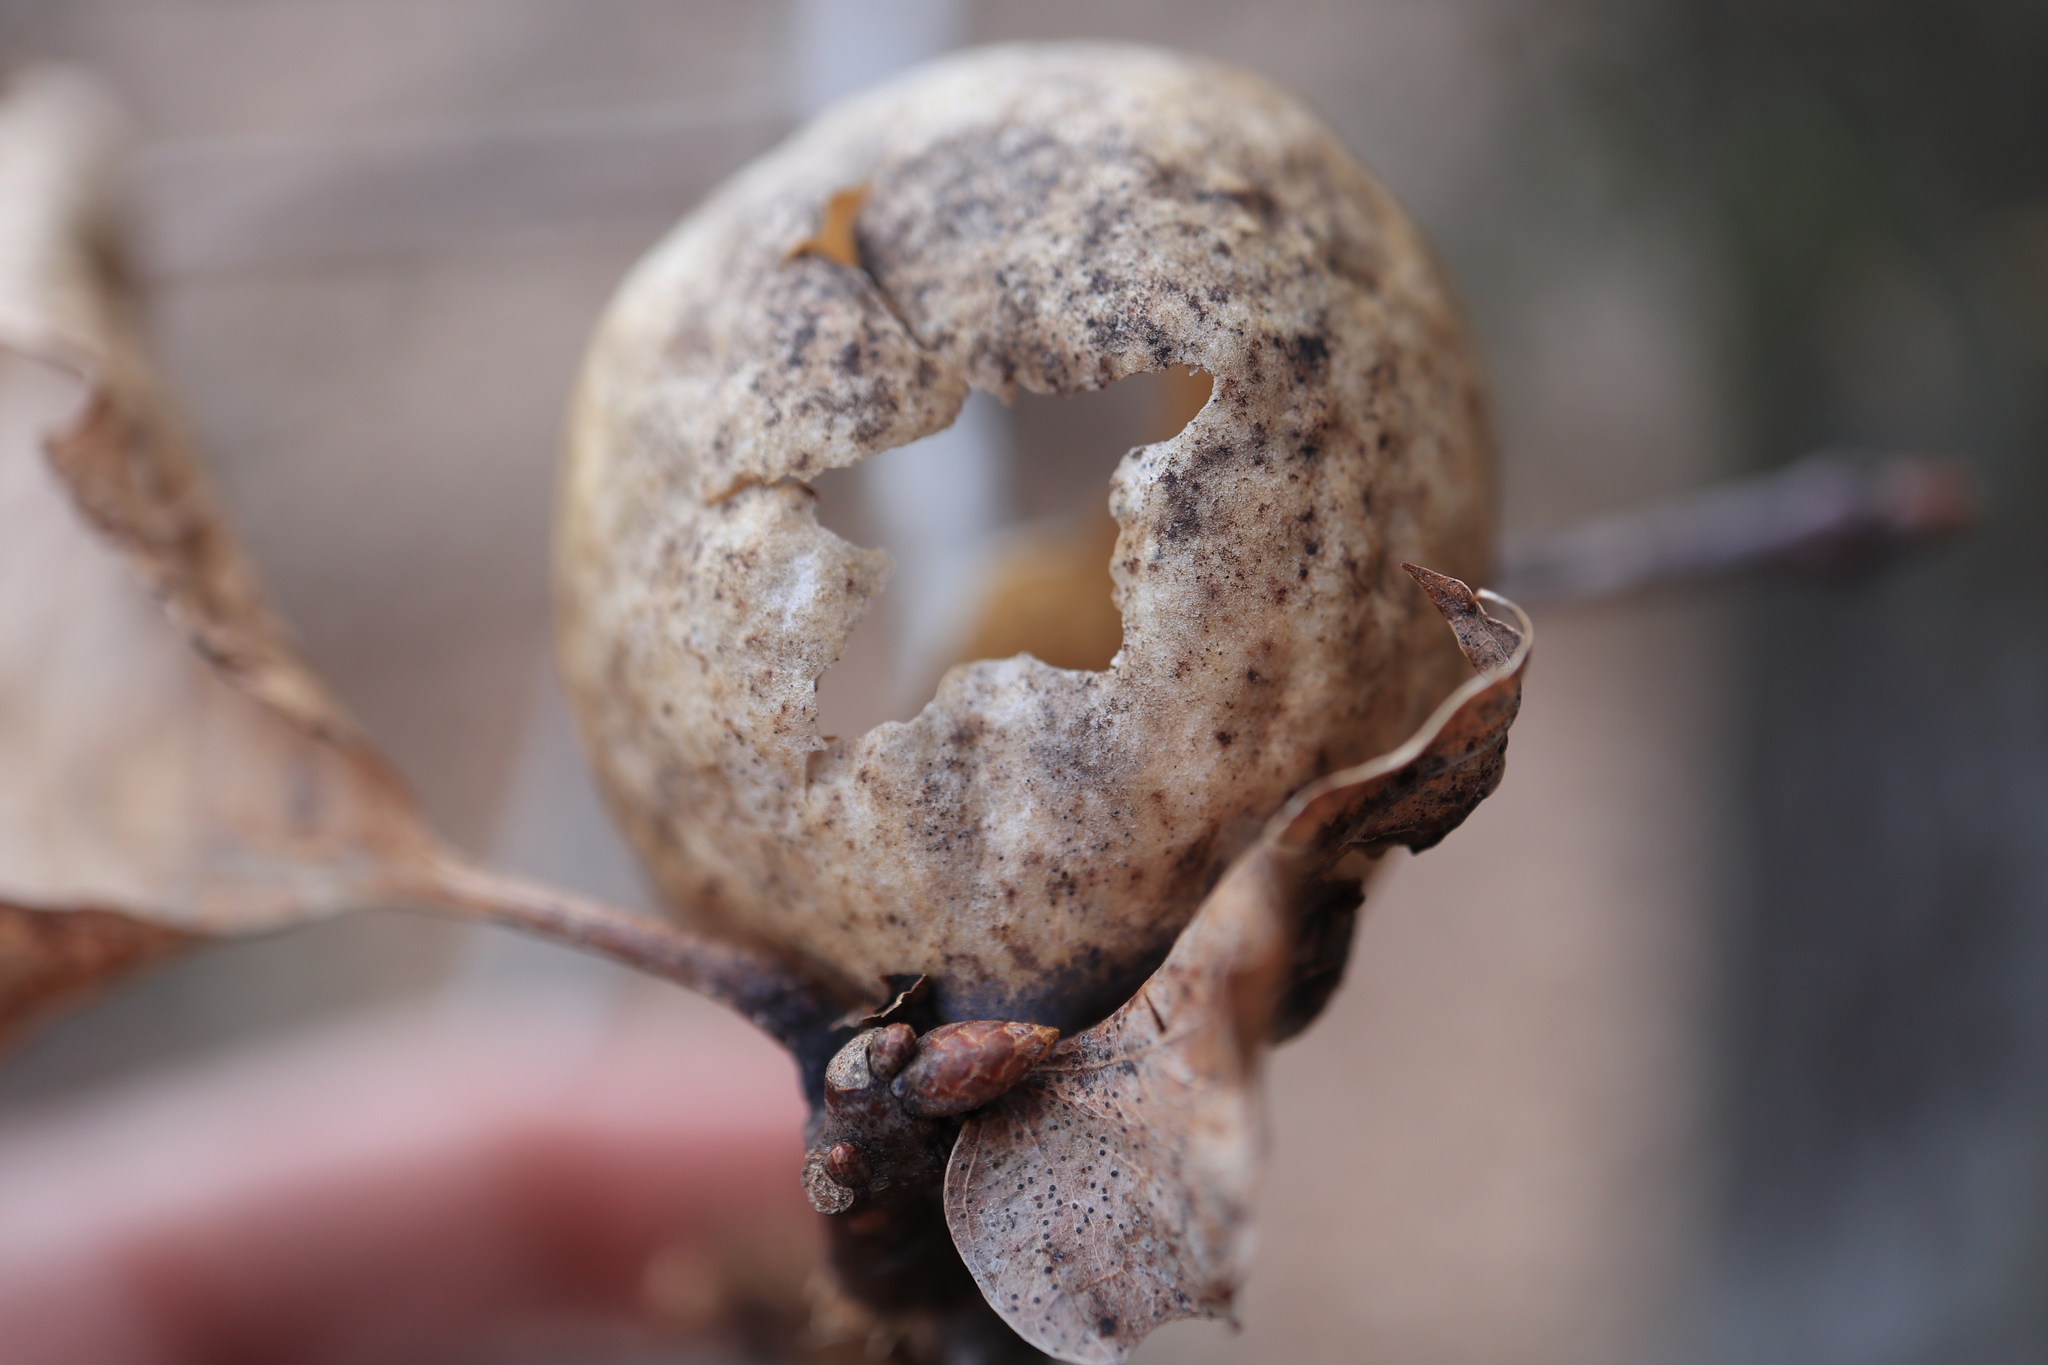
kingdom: Animalia
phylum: Arthropoda
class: Insecta
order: Hymenoptera
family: Cynipidae
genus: Amphibolips
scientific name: Amphibolips
